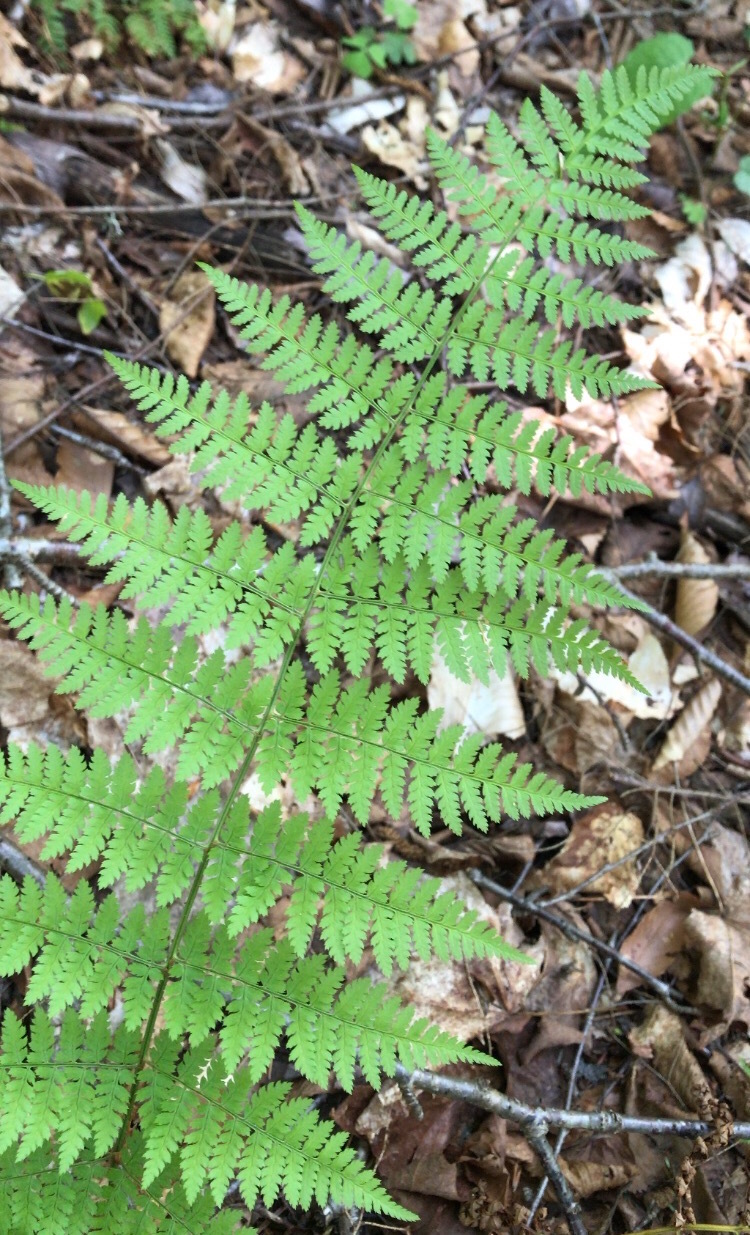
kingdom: Plantae
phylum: Tracheophyta
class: Polypodiopsida
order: Polypodiales
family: Dryopteridaceae
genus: Dryopteris
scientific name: Dryopteris intermedia
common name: Evergreen wood fern
